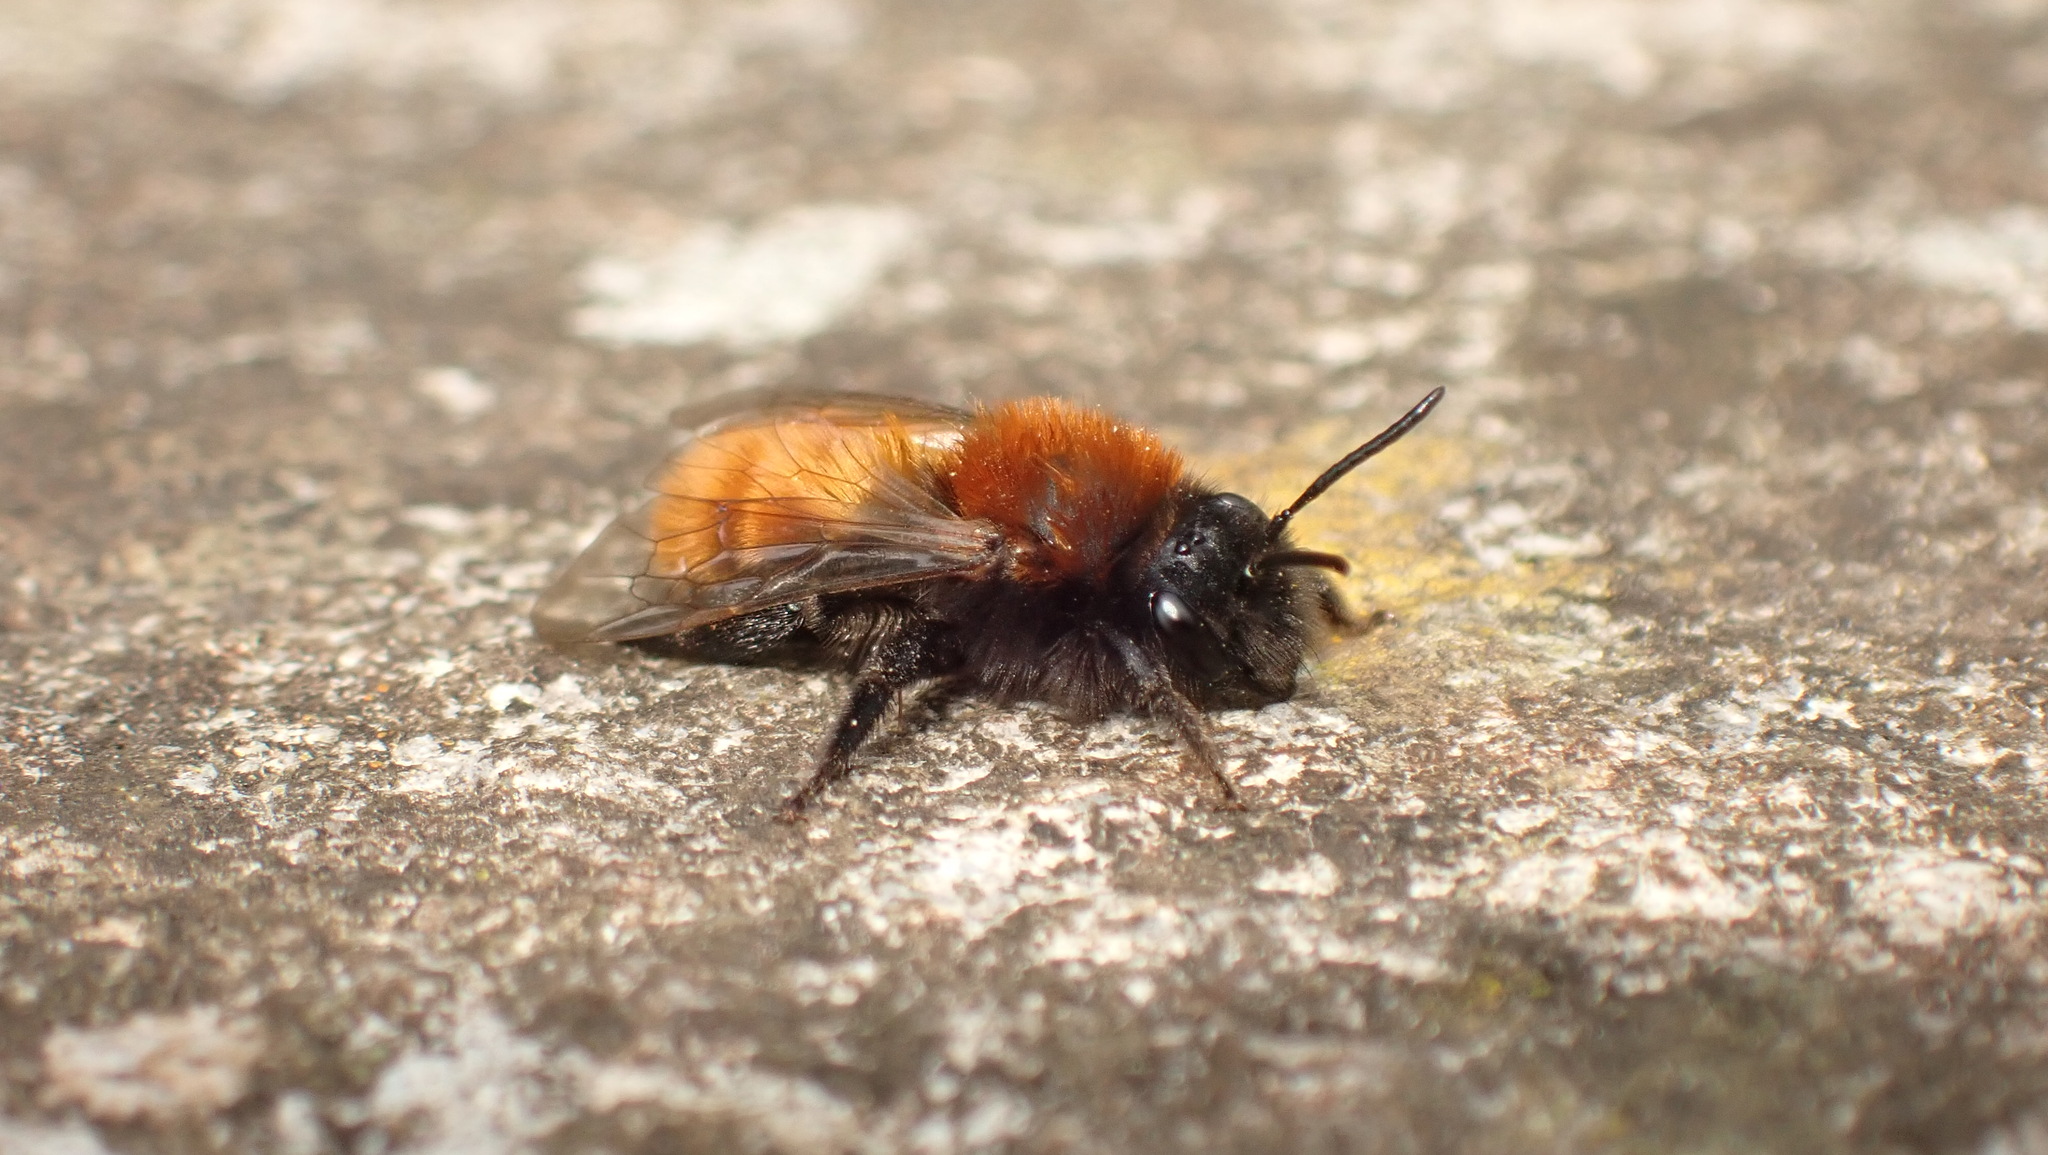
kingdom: Animalia
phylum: Arthropoda
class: Insecta
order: Hymenoptera
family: Andrenidae
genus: Andrena
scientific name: Andrena fulva
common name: Tawny mining bee
